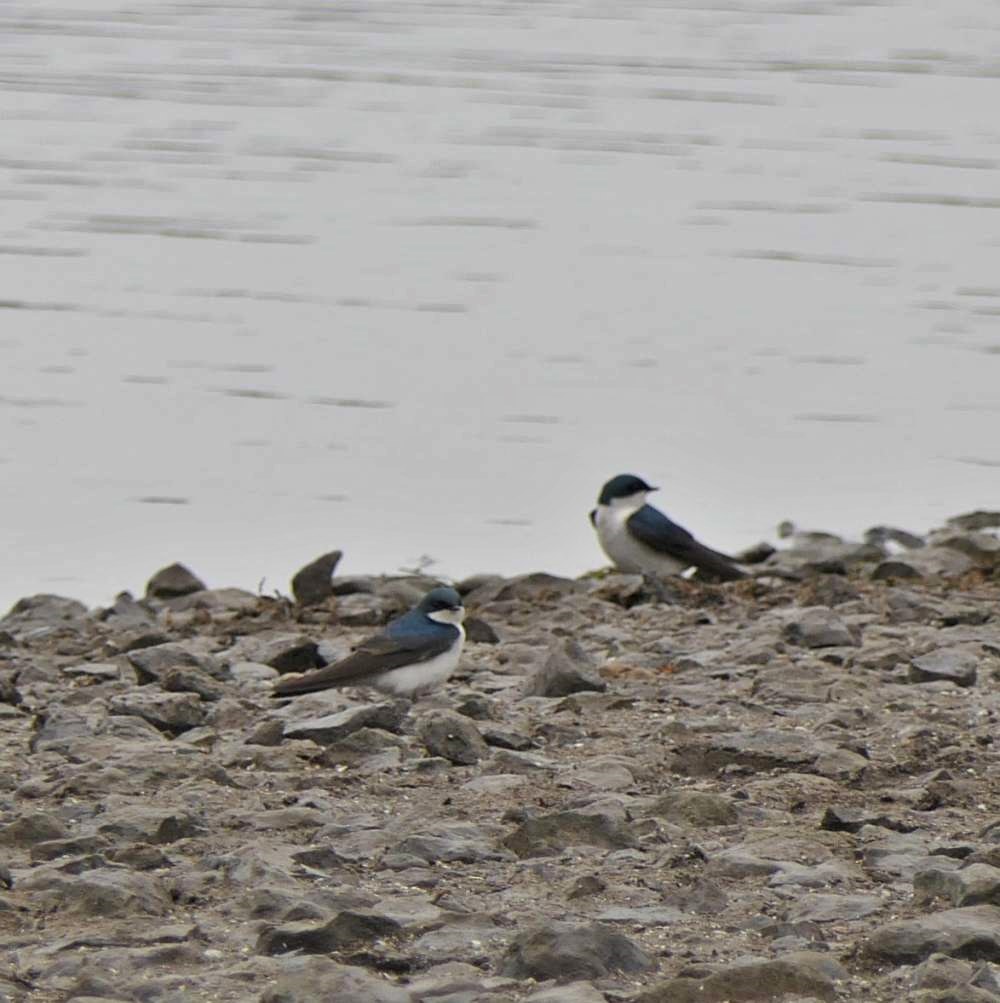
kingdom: Animalia
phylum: Chordata
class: Aves
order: Passeriformes
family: Hirundinidae
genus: Tachycineta
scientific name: Tachycineta bicolor
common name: Tree swallow
